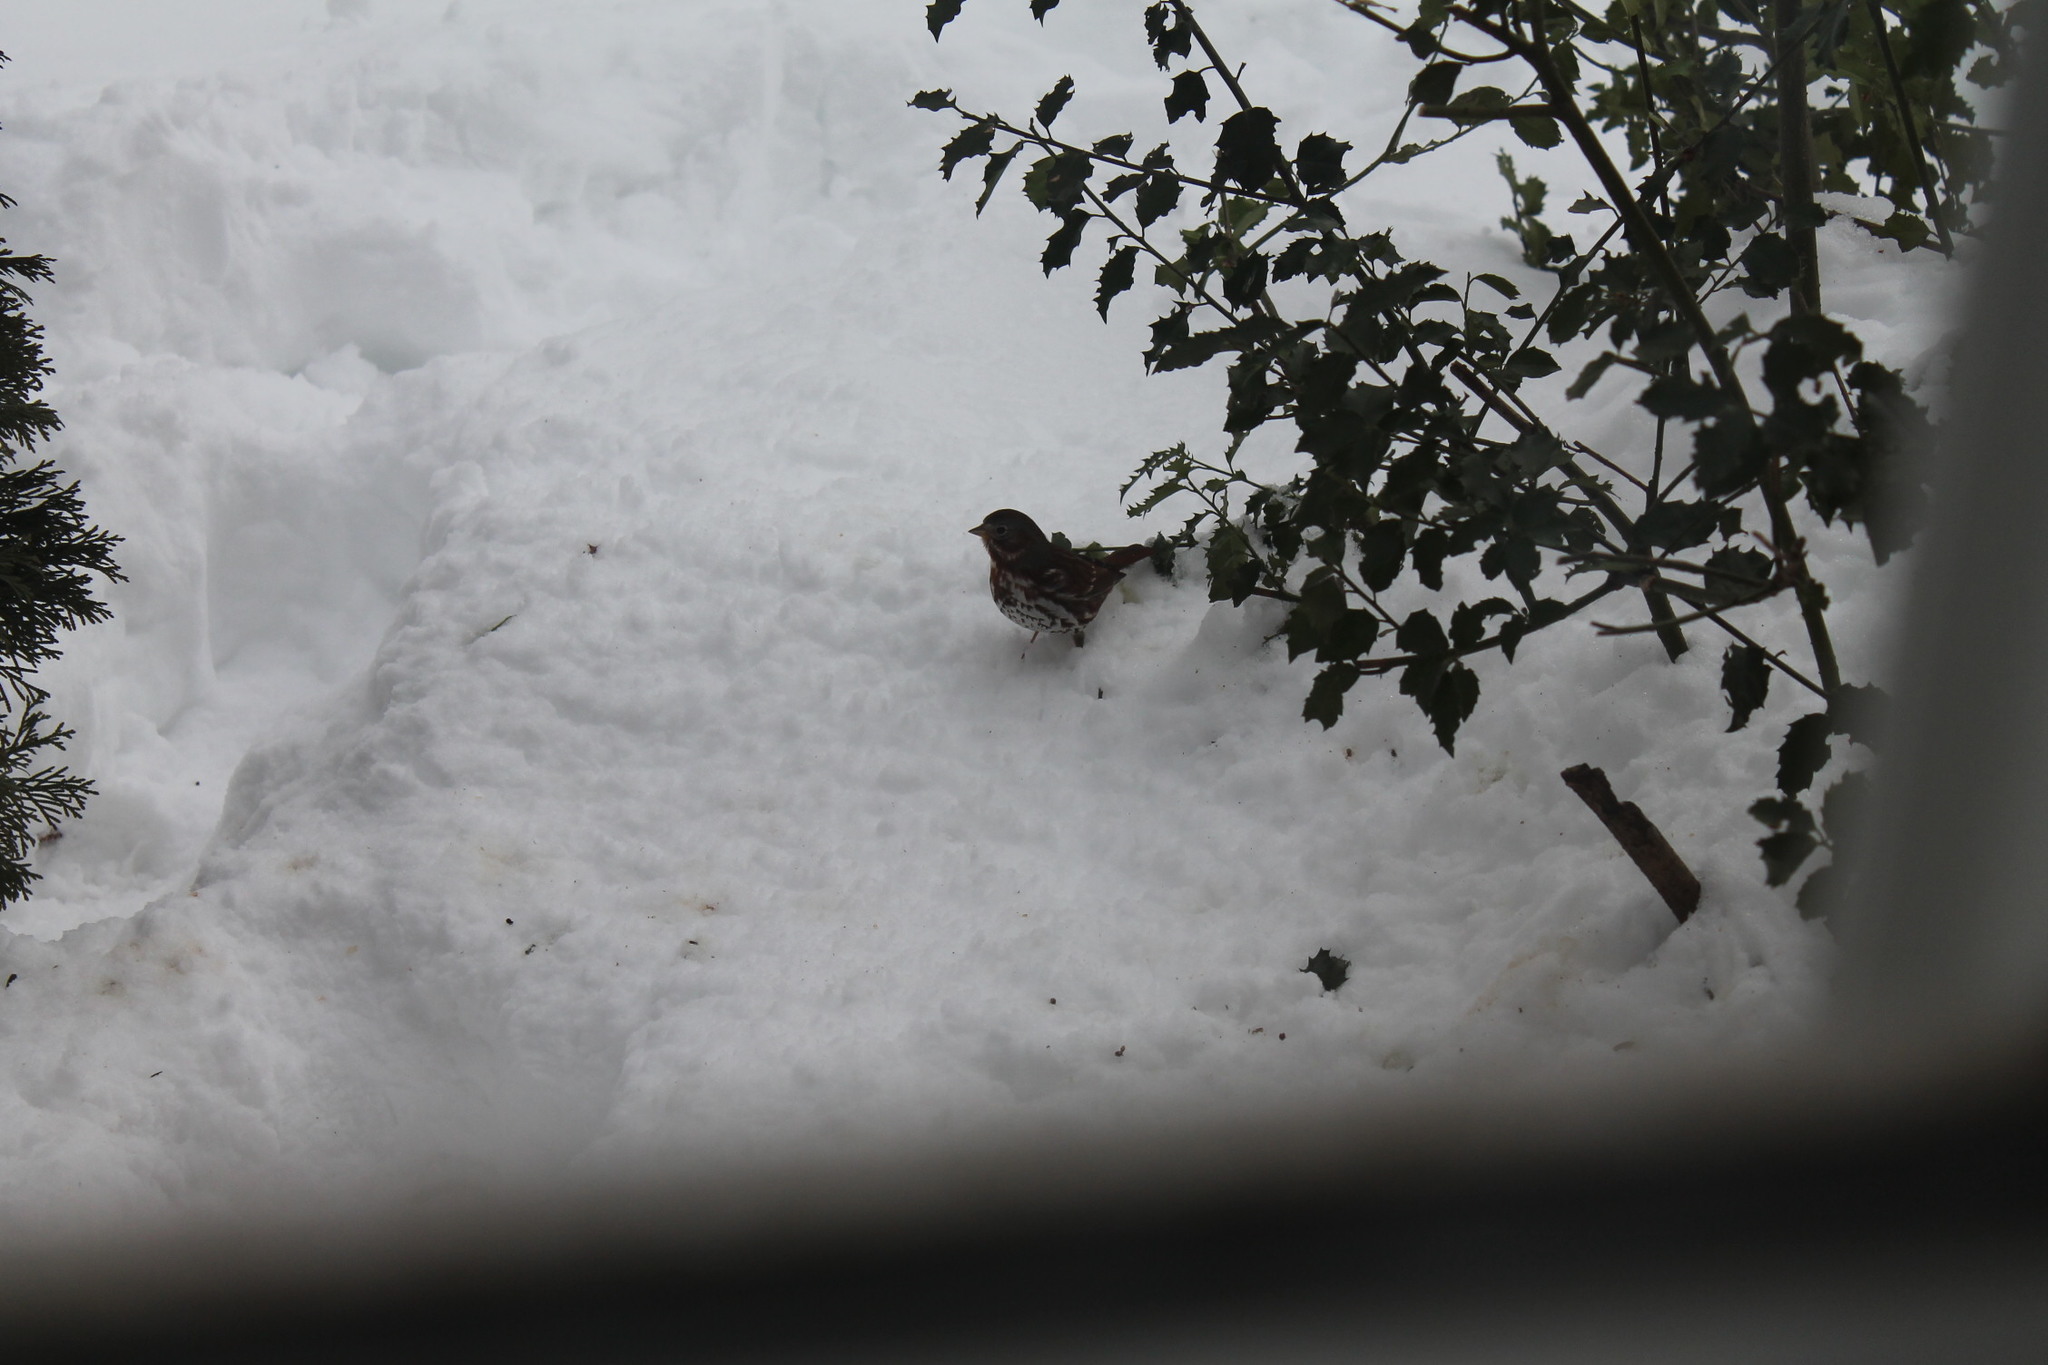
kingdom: Animalia
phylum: Chordata
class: Aves
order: Passeriformes
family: Passerellidae
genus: Passerella
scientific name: Passerella iliaca
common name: Fox sparrow
